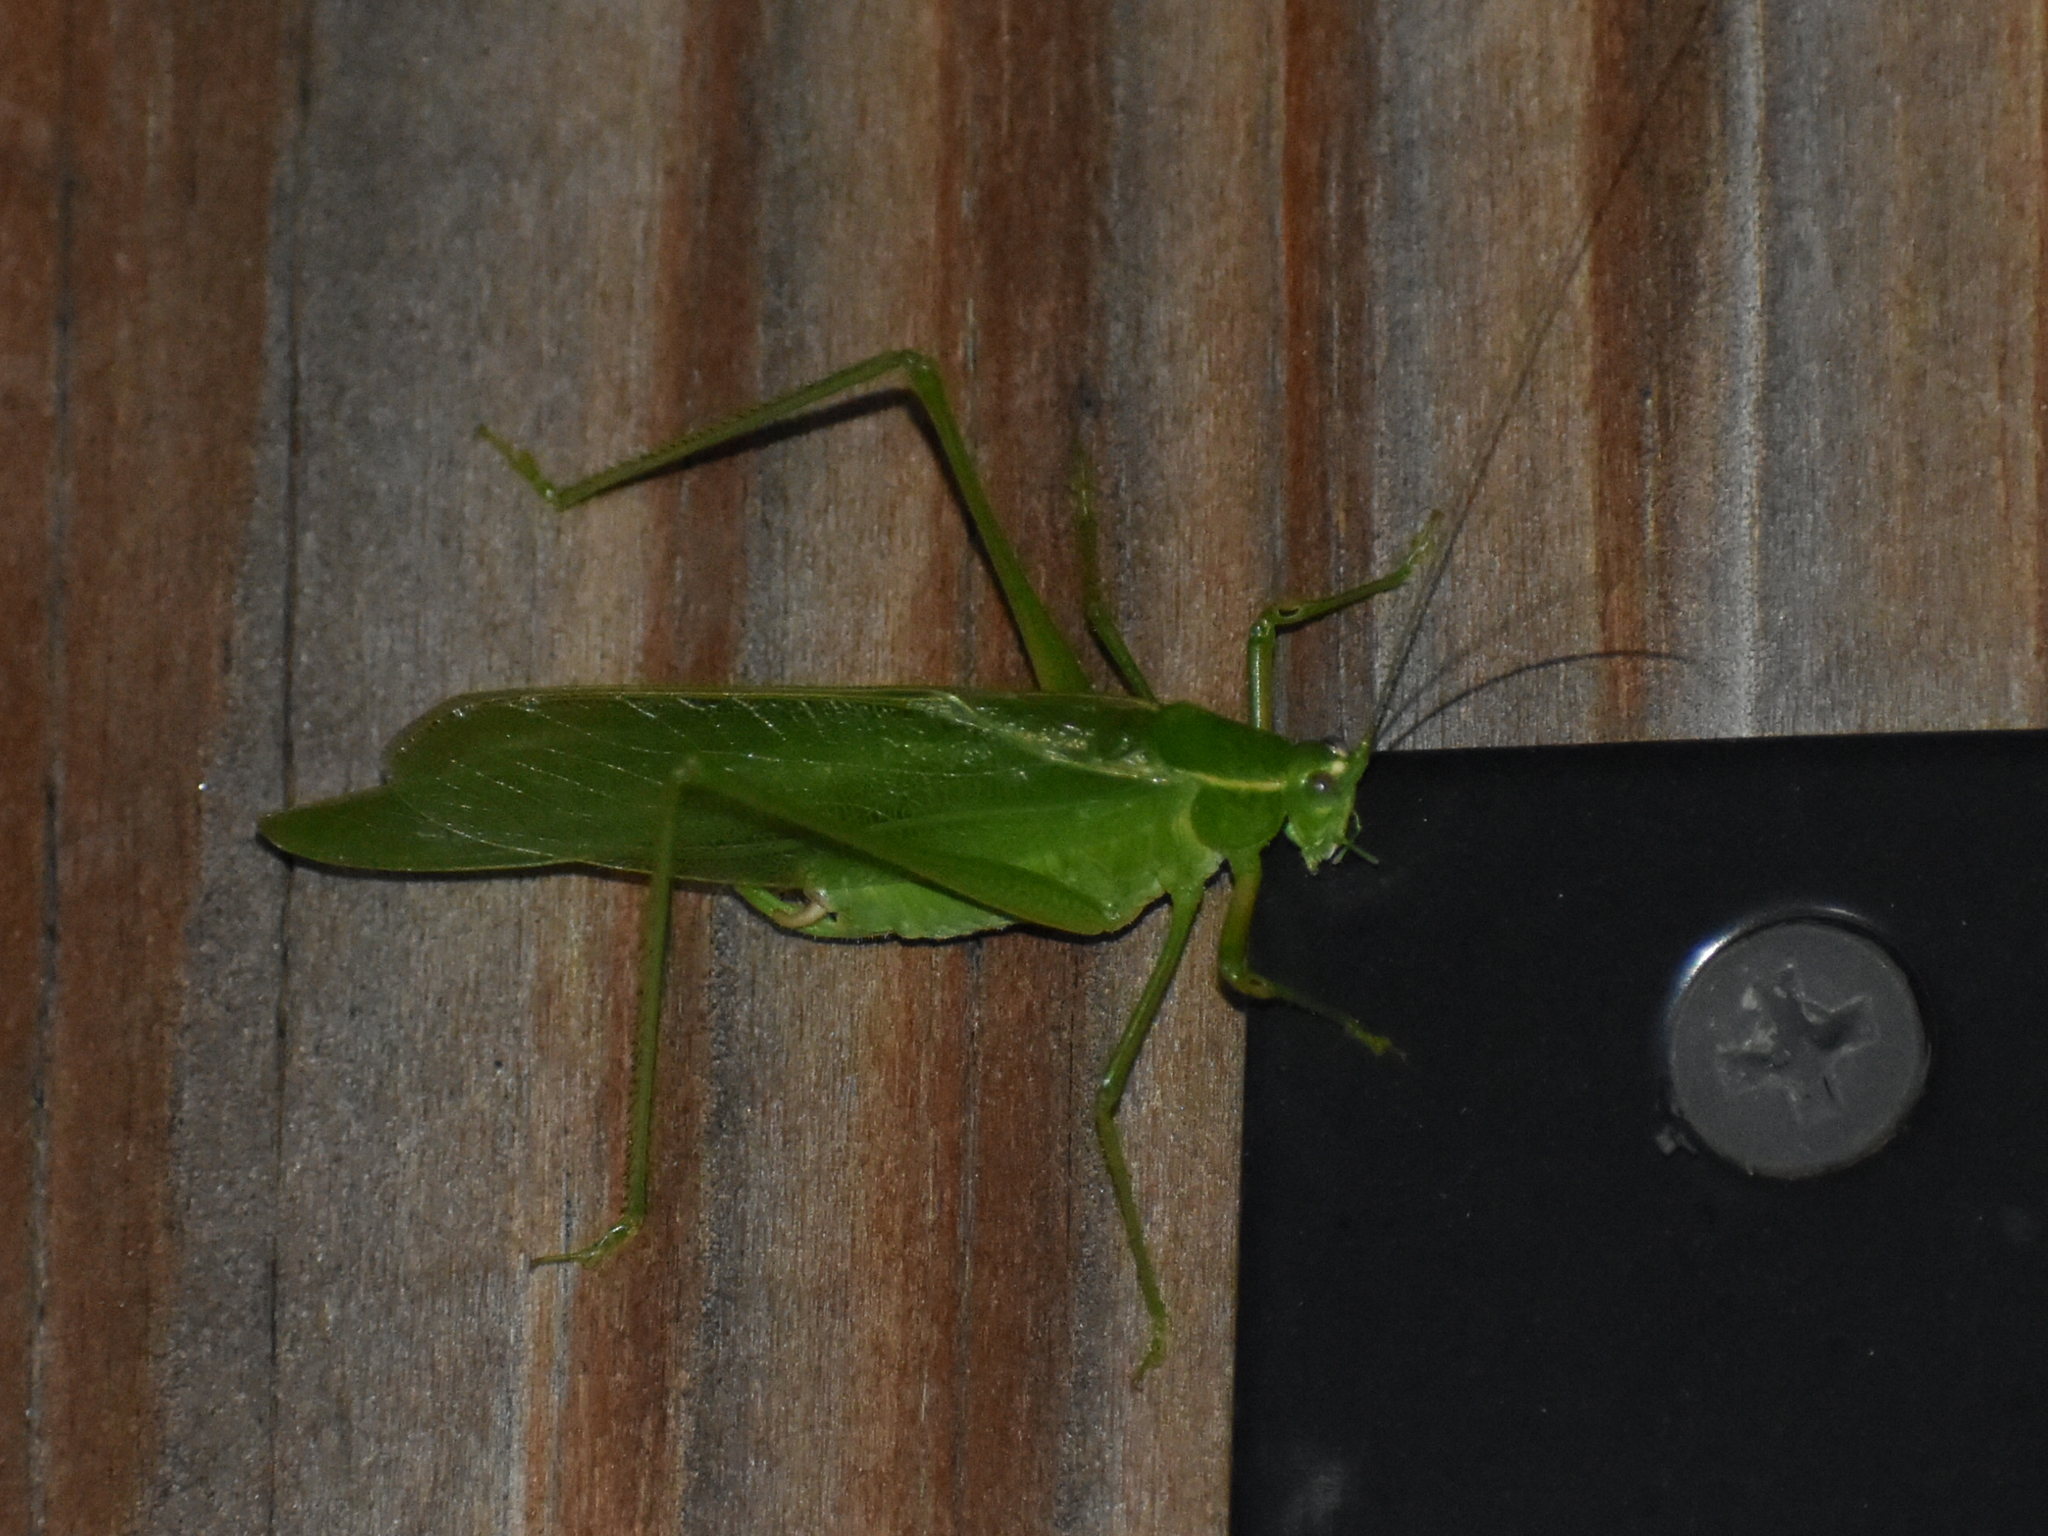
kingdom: Animalia
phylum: Arthropoda
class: Insecta
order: Orthoptera
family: Tettigoniidae
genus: Scudderia
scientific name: Scudderia septentrionalis
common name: Northern bush-katydid
